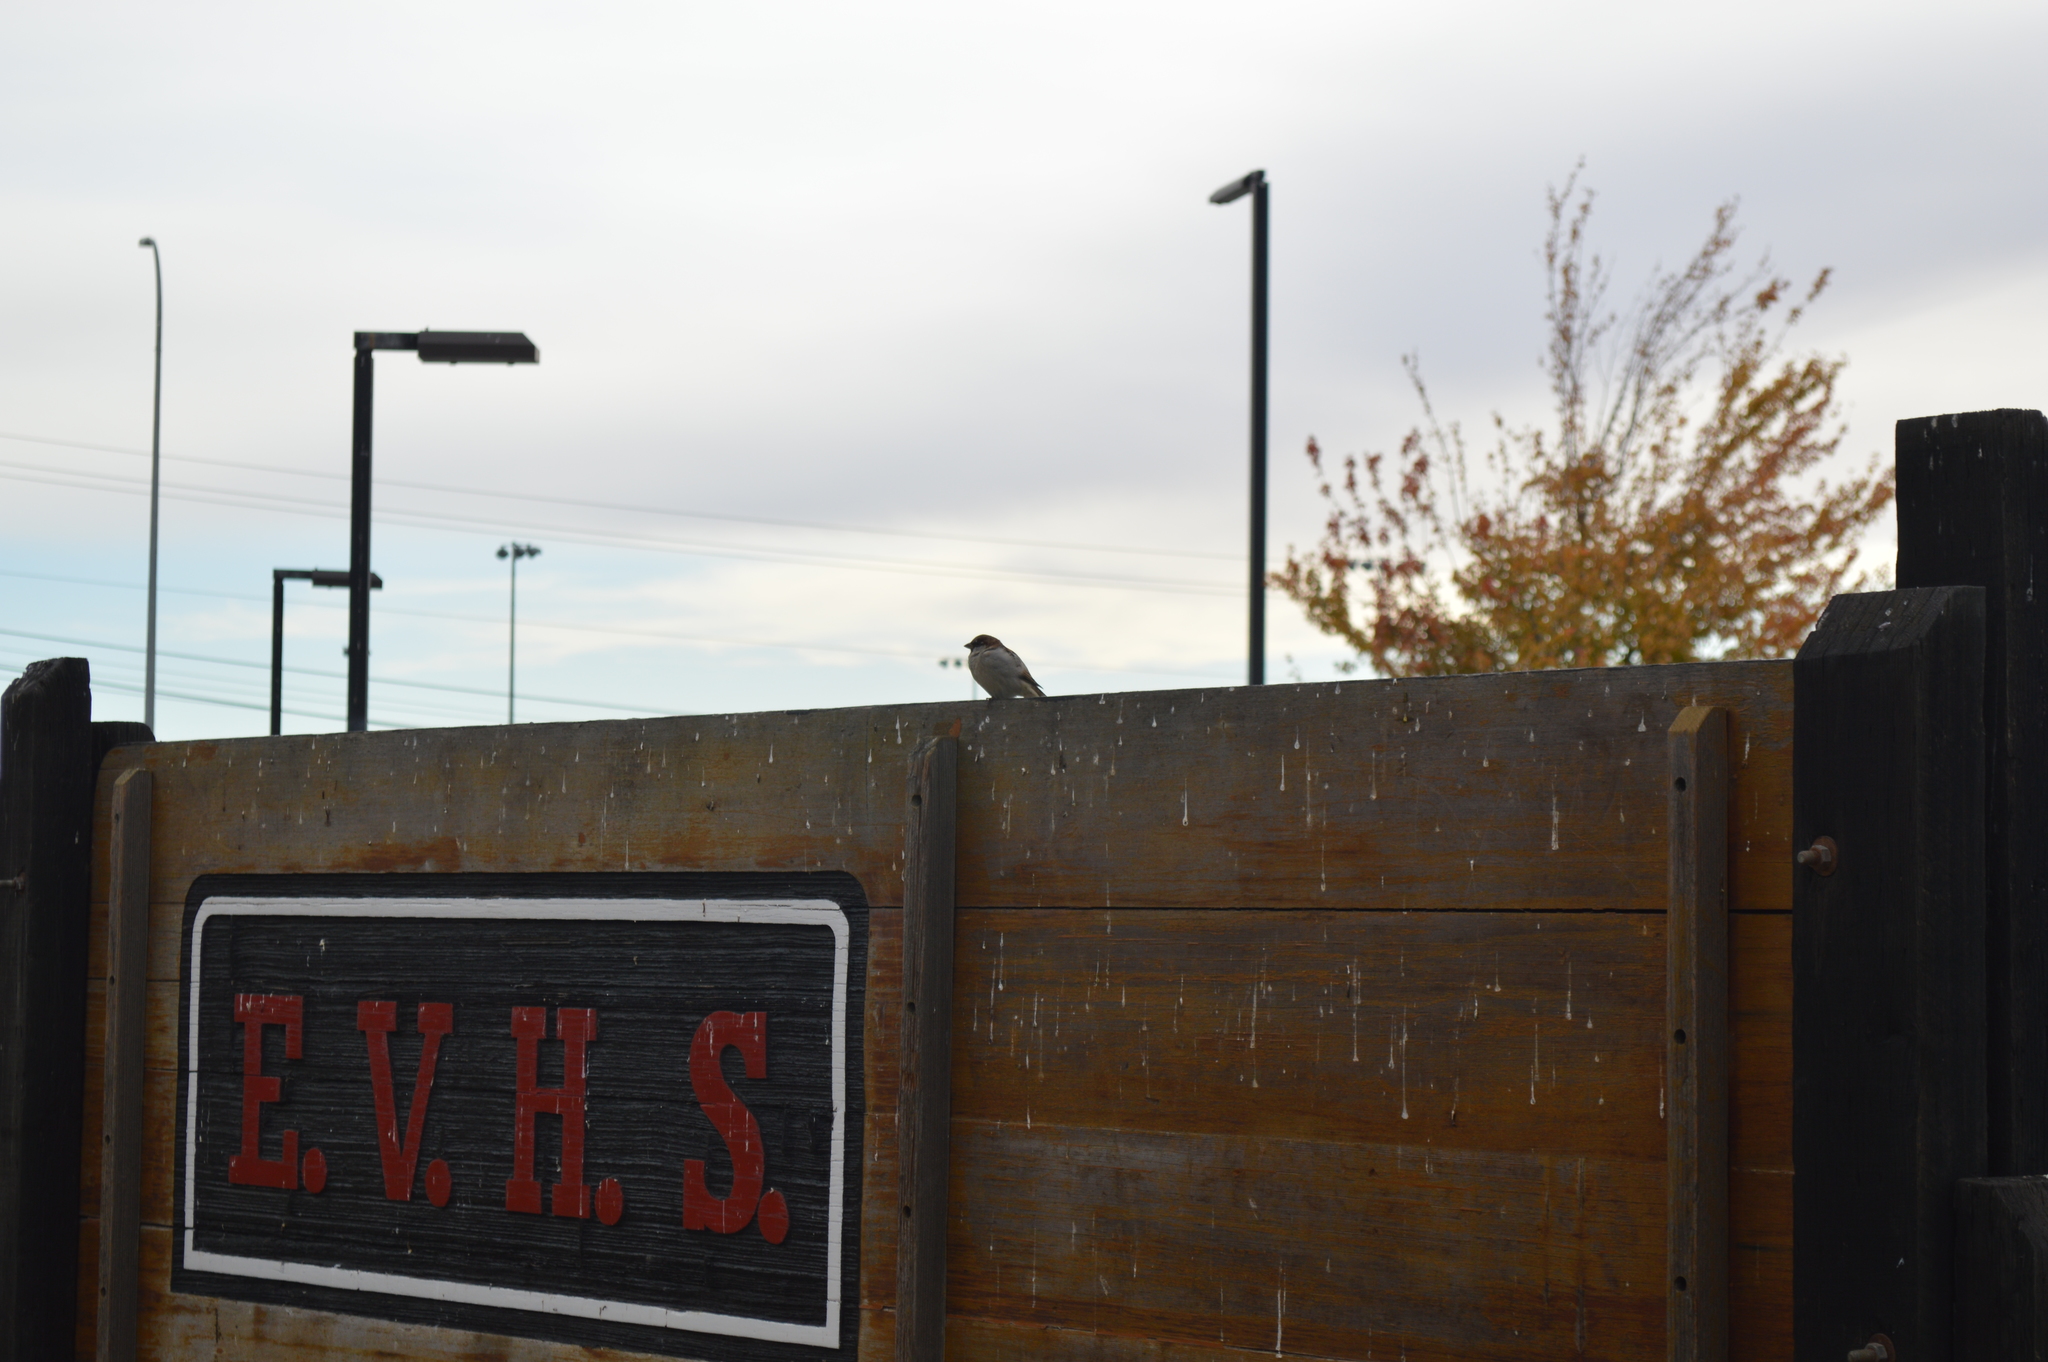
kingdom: Animalia
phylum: Chordata
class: Aves
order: Passeriformes
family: Passeridae
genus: Passer
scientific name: Passer domesticus
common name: House sparrow
